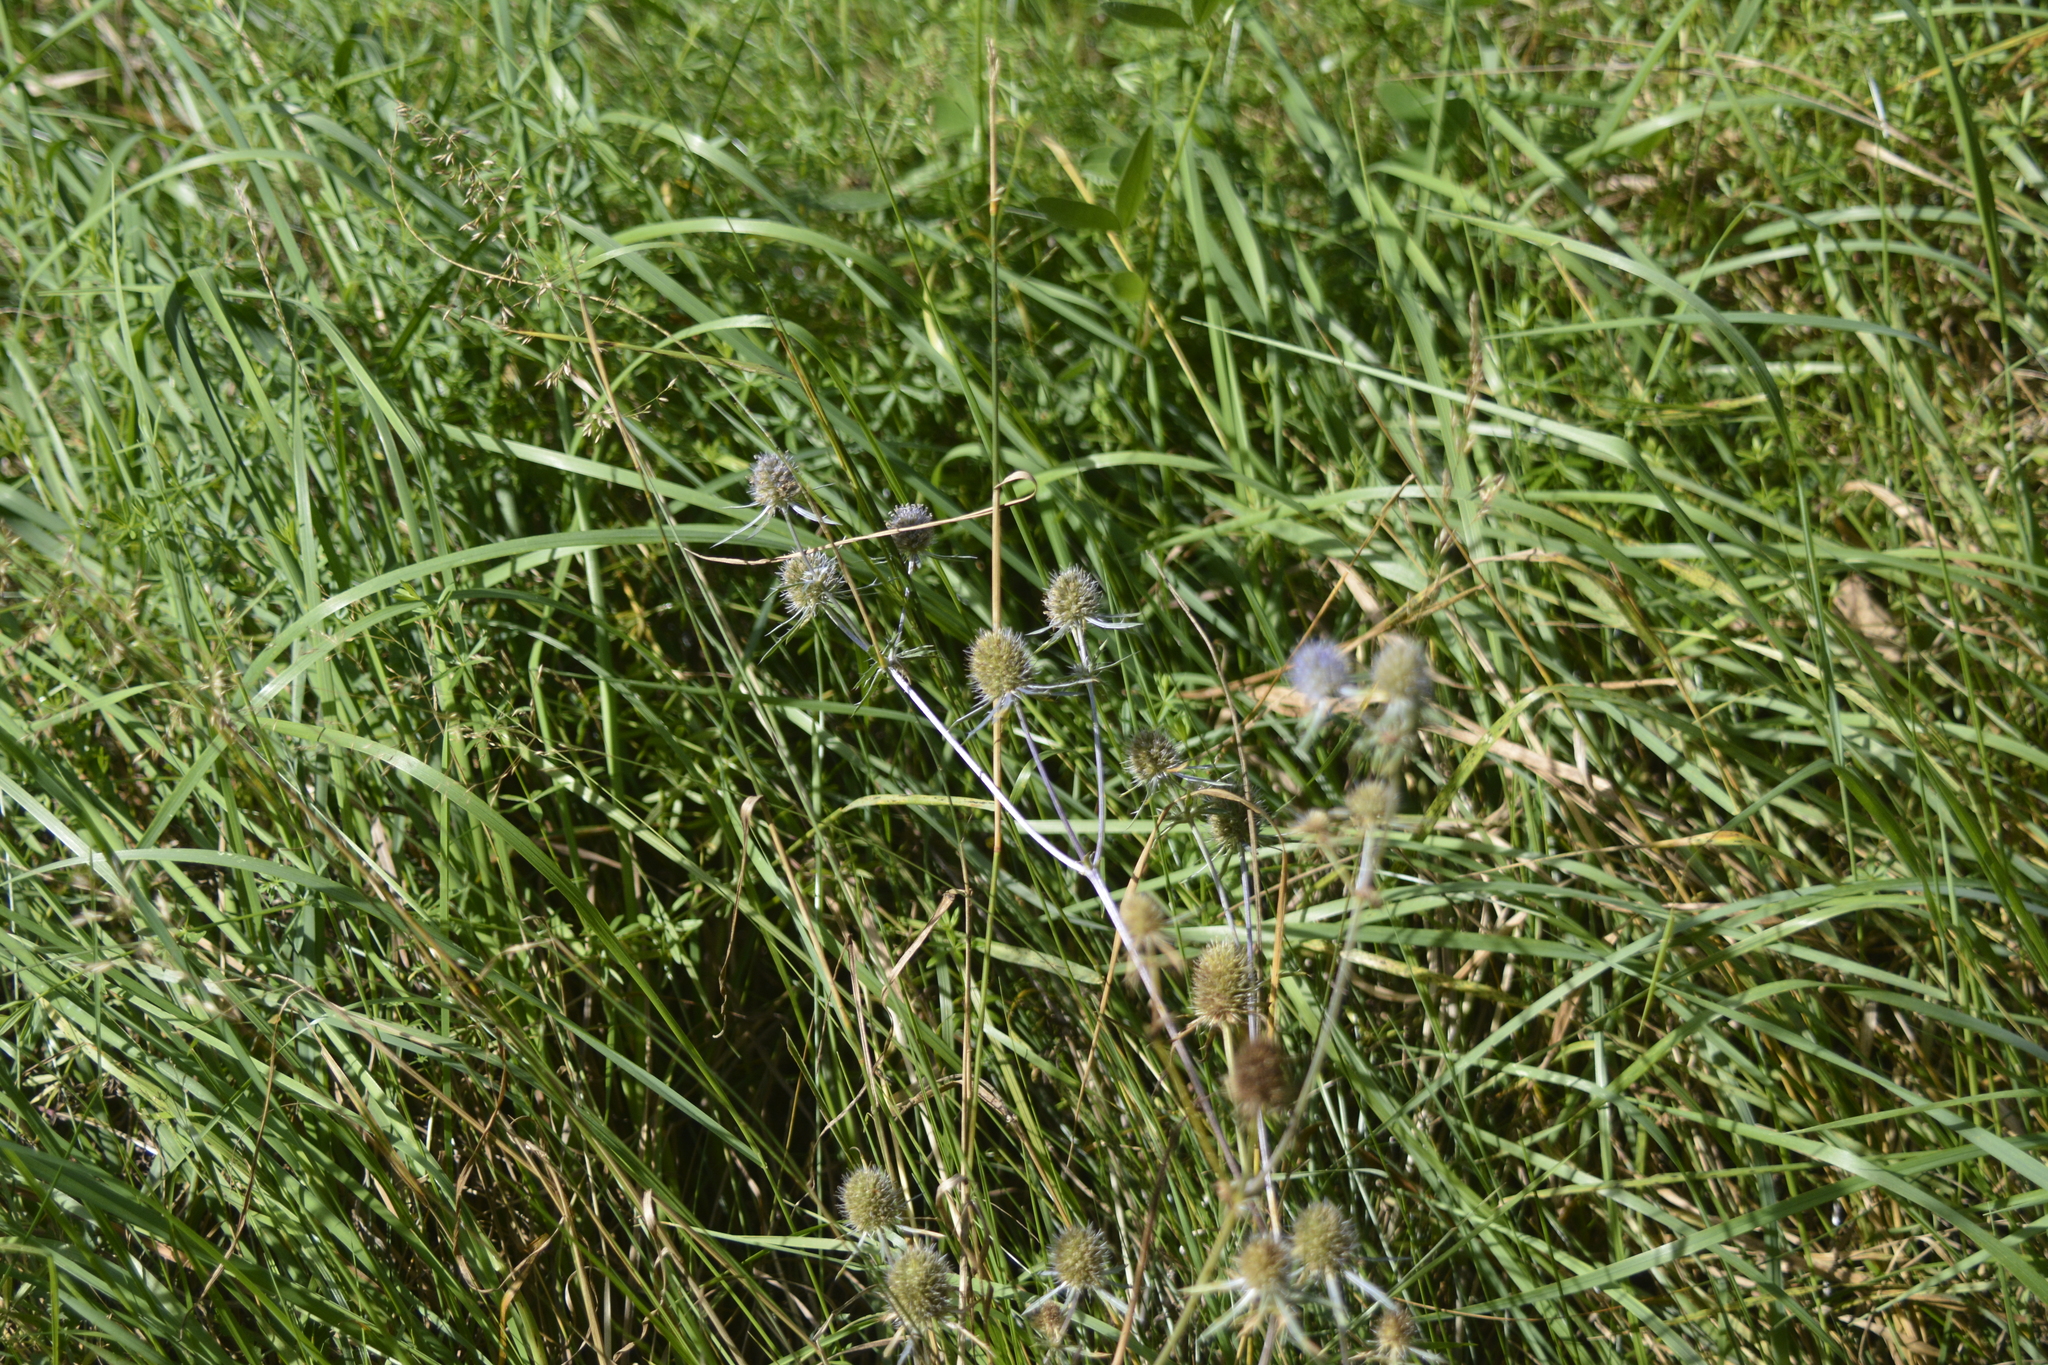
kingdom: Plantae
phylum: Tracheophyta
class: Magnoliopsida
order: Apiales
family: Apiaceae
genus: Eryngium
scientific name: Eryngium planum
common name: Blue eryngo
